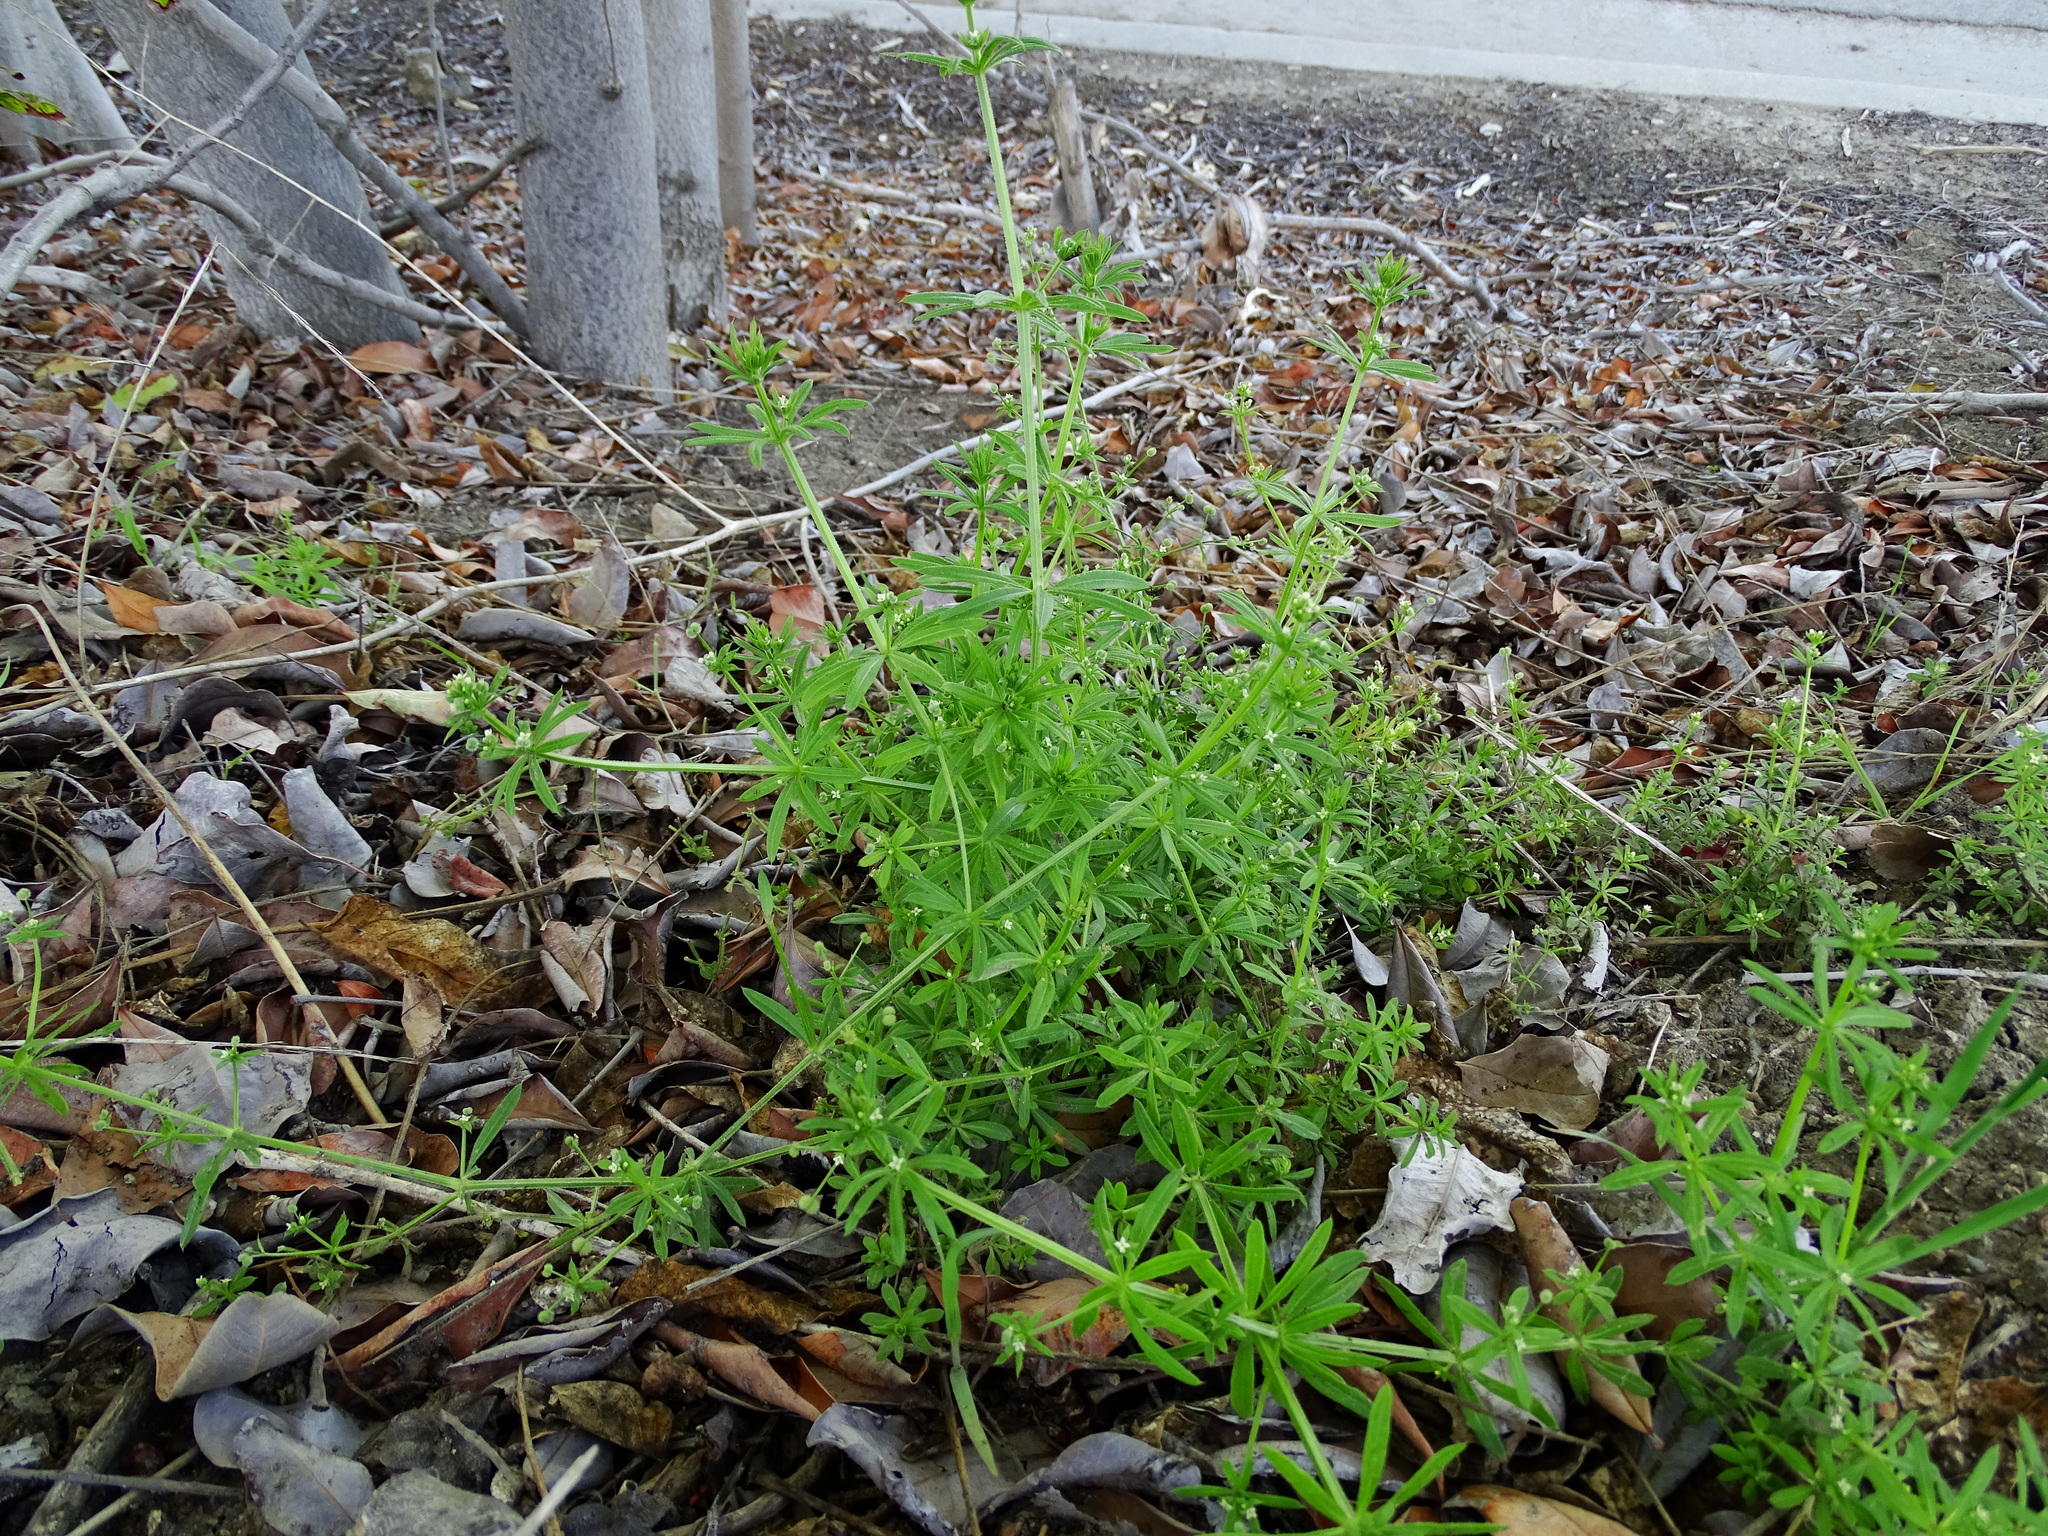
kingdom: Plantae
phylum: Tracheophyta
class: Magnoliopsida
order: Gentianales
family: Rubiaceae
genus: Galium
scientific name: Galium aparine
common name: Cleavers
